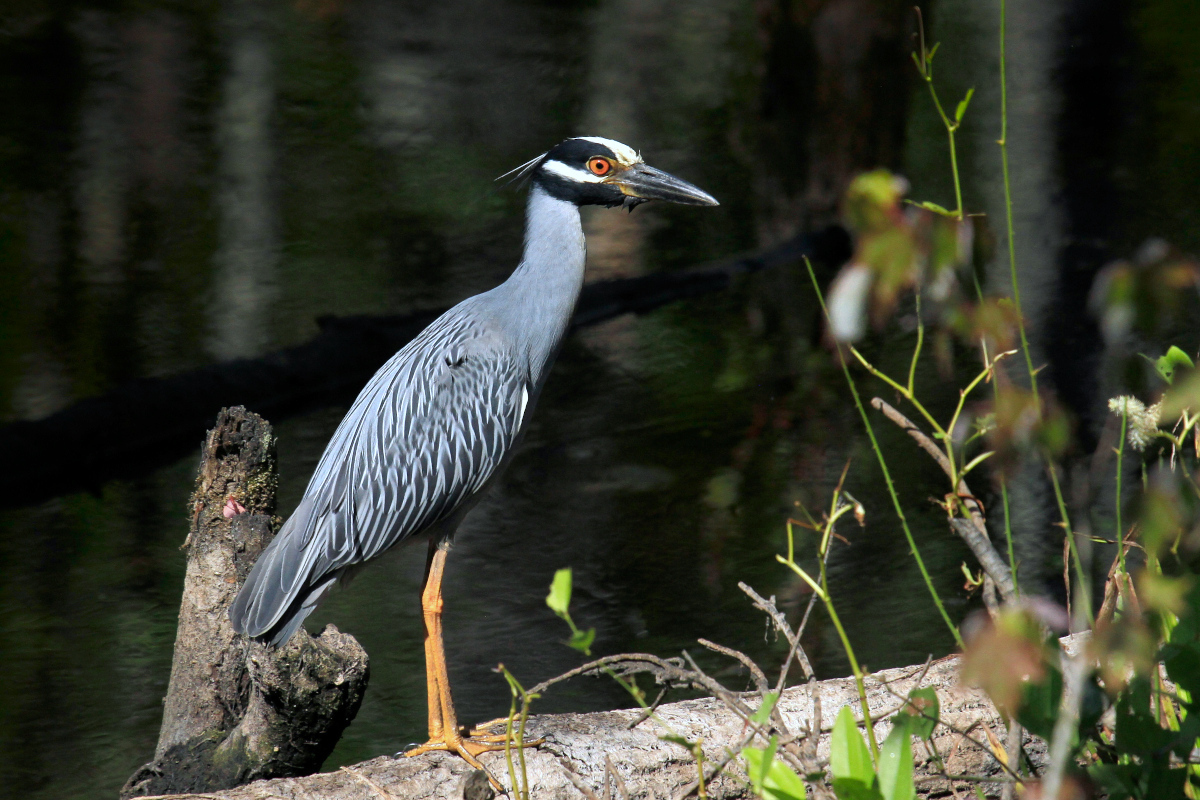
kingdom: Animalia
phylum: Chordata
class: Aves
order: Pelecaniformes
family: Ardeidae
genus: Nyctanassa
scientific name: Nyctanassa violacea
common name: Yellow-crowned night heron
